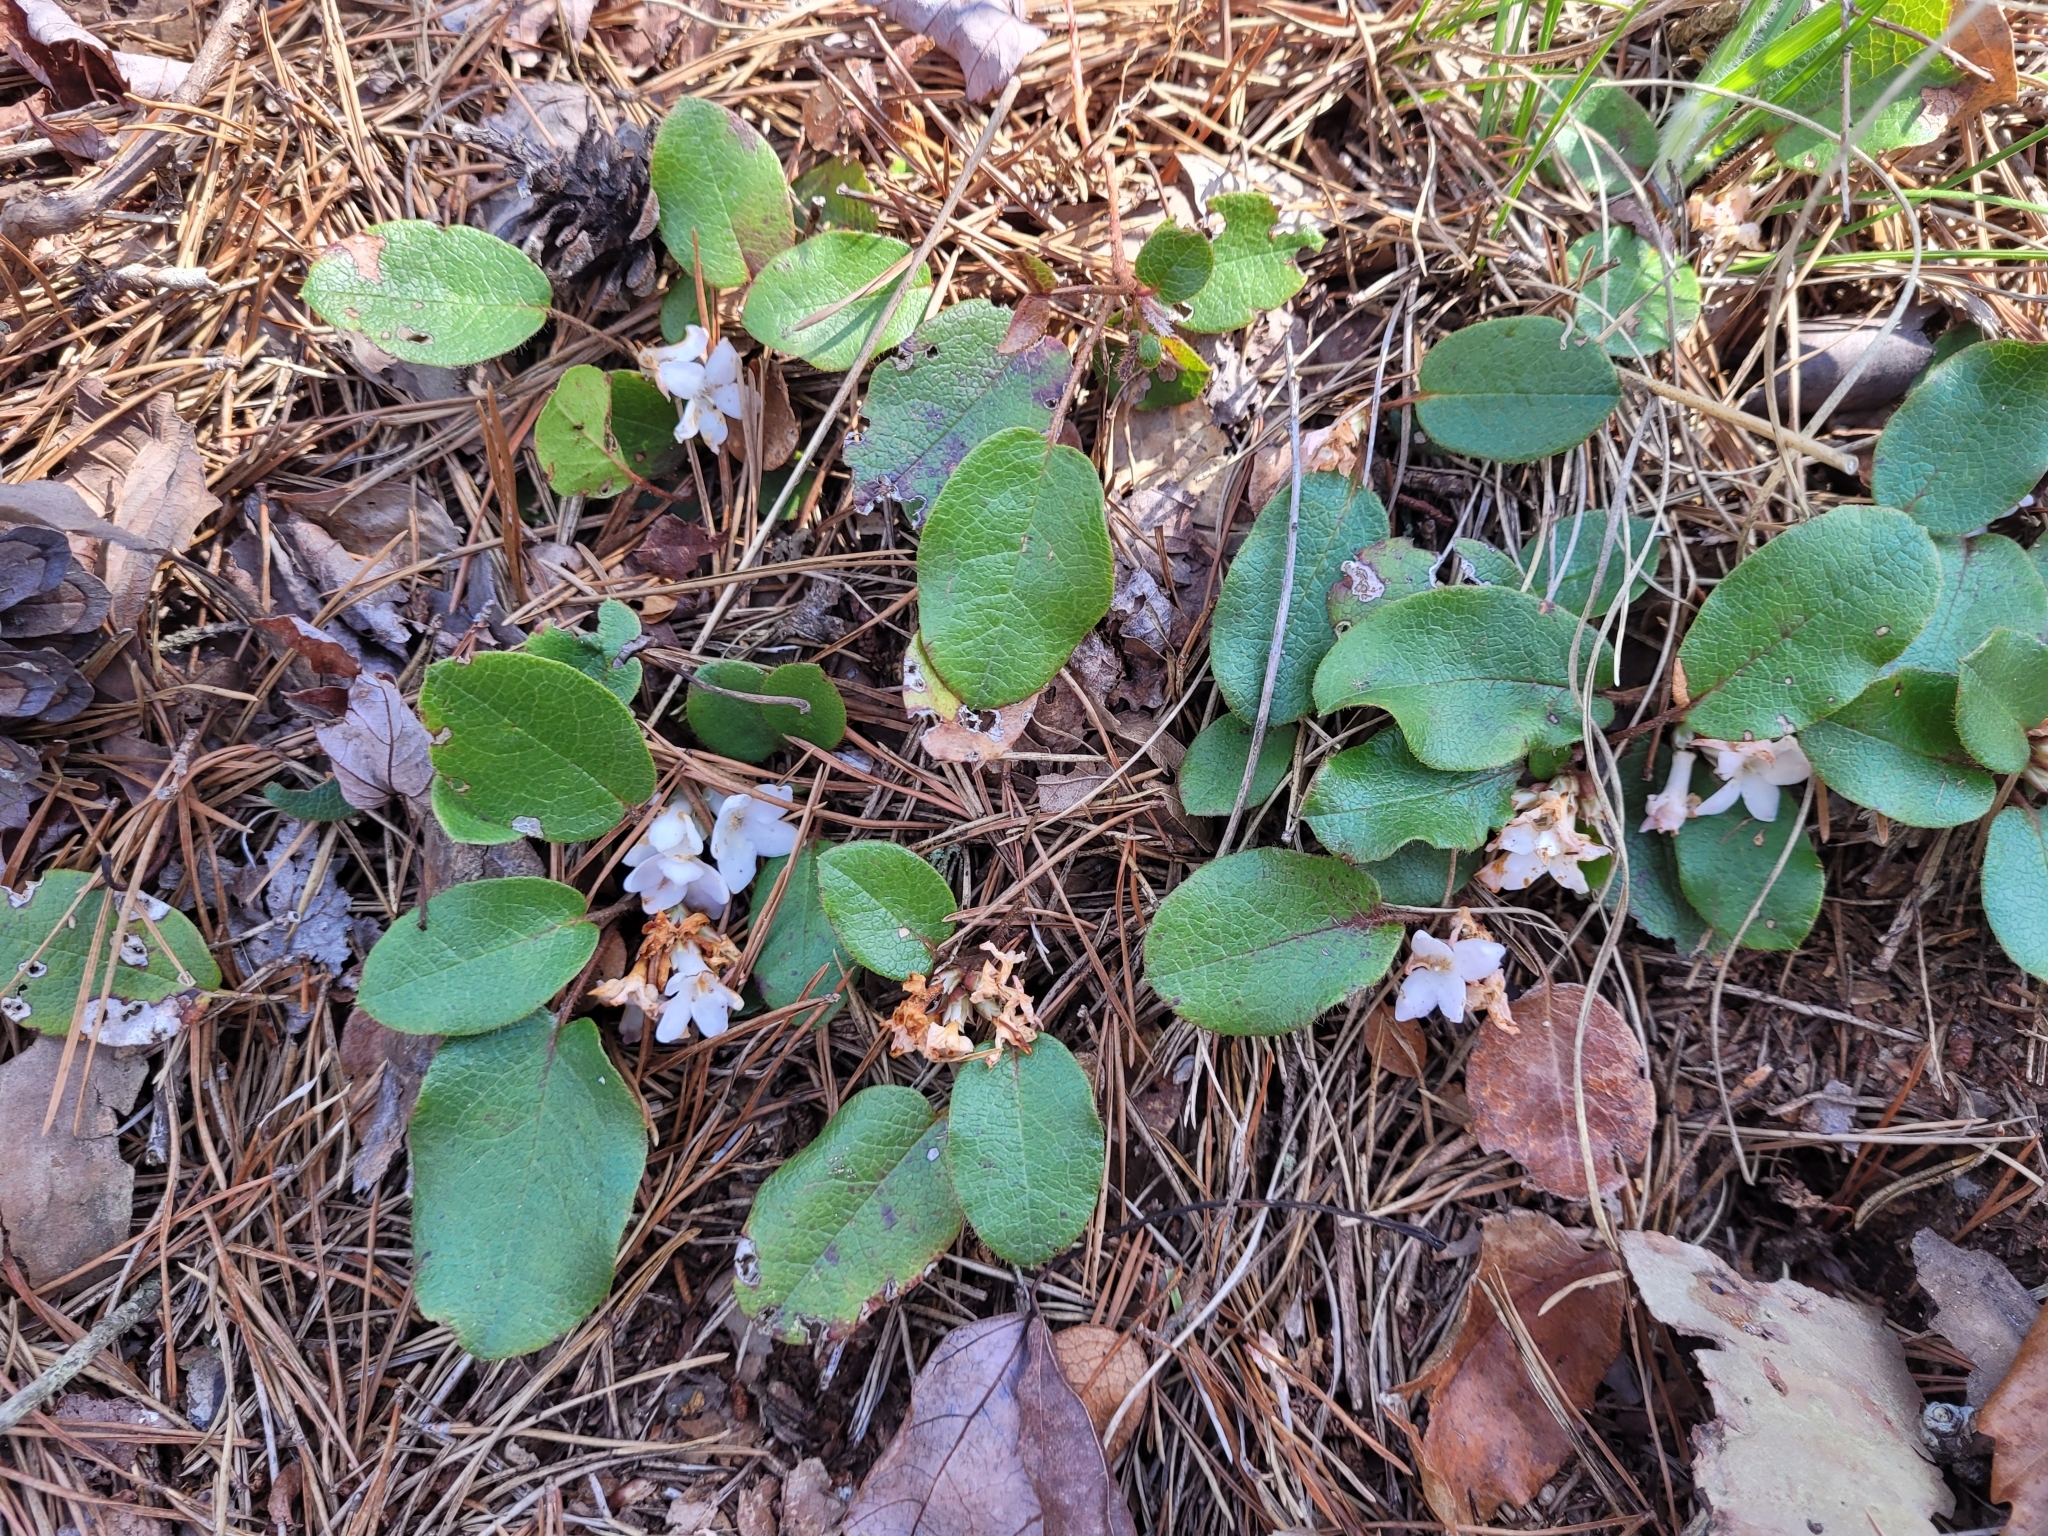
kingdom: Plantae
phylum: Tracheophyta
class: Magnoliopsida
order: Ericales
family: Ericaceae
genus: Epigaea
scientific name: Epigaea repens
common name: Gravelroot
